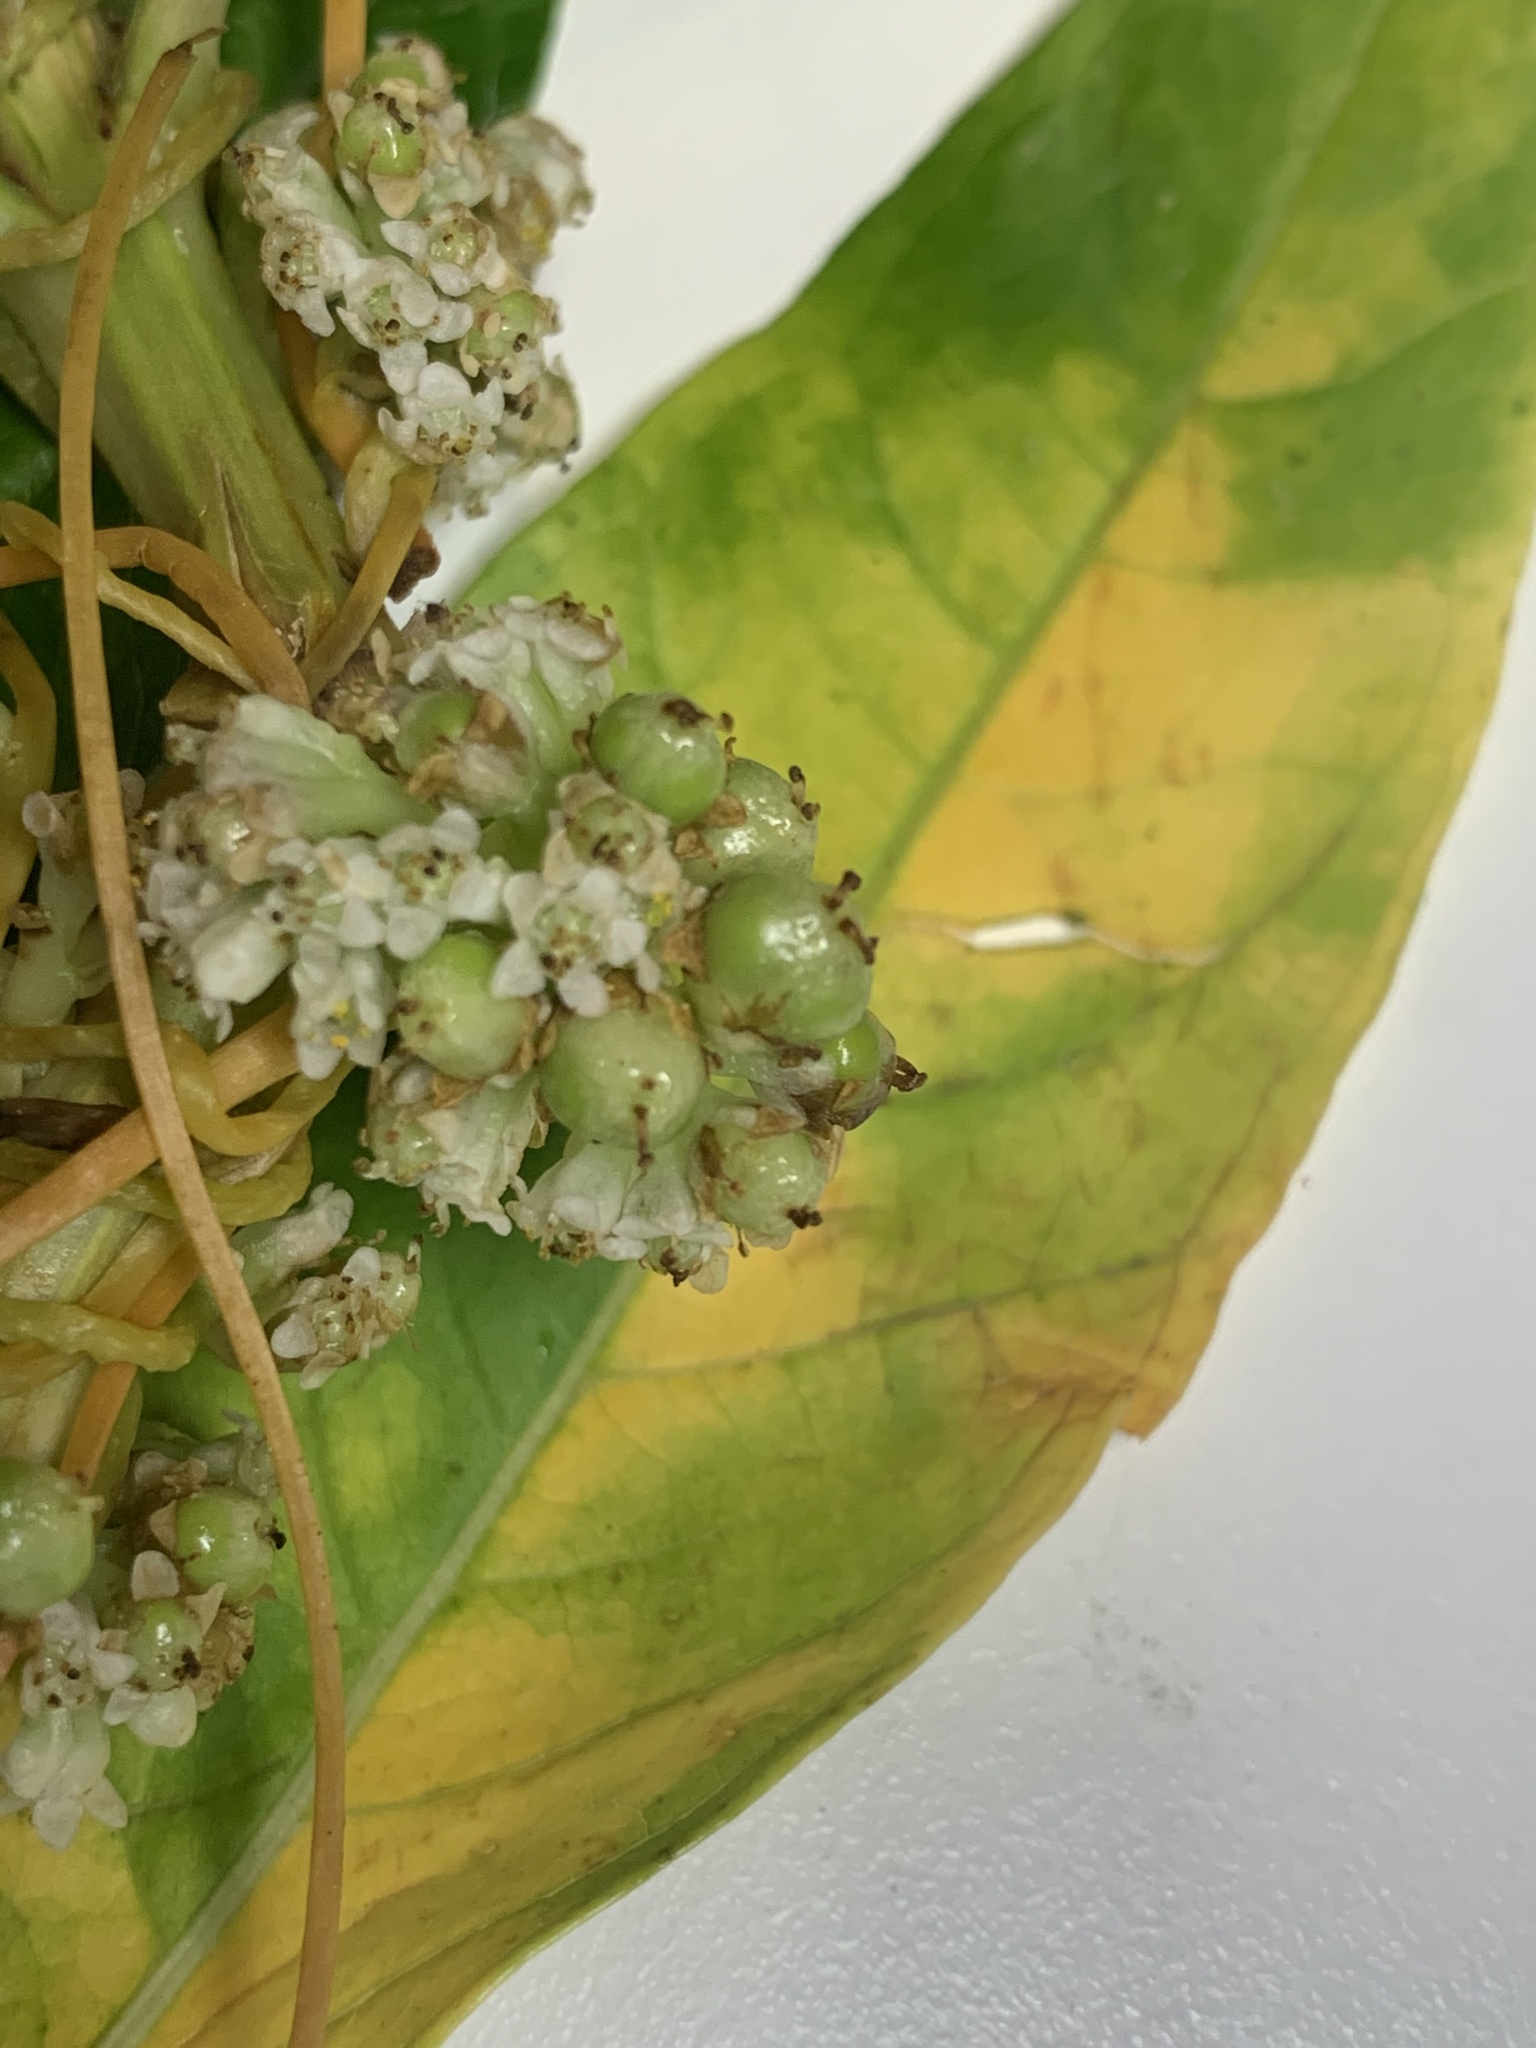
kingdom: Plantae
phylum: Tracheophyta
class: Magnoliopsida
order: Solanales
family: Convolvulaceae
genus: Cuscuta
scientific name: Cuscuta gronovii
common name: Common dodder
